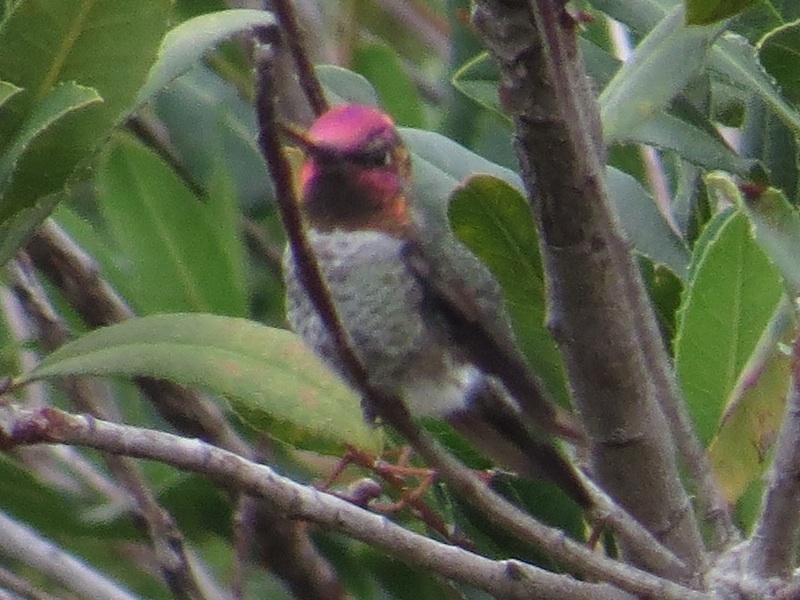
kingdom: Animalia
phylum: Chordata
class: Aves
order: Apodiformes
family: Trochilidae
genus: Calypte
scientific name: Calypte anna
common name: Anna's hummingbird
